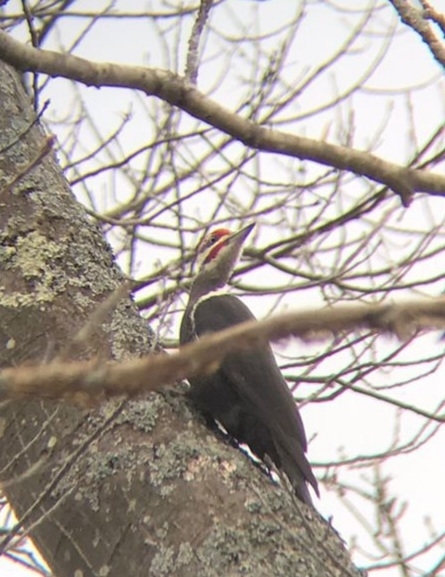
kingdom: Animalia
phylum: Chordata
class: Aves
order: Piciformes
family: Picidae
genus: Dryocopus
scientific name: Dryocopus pileatus
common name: Pileated woodpecker
